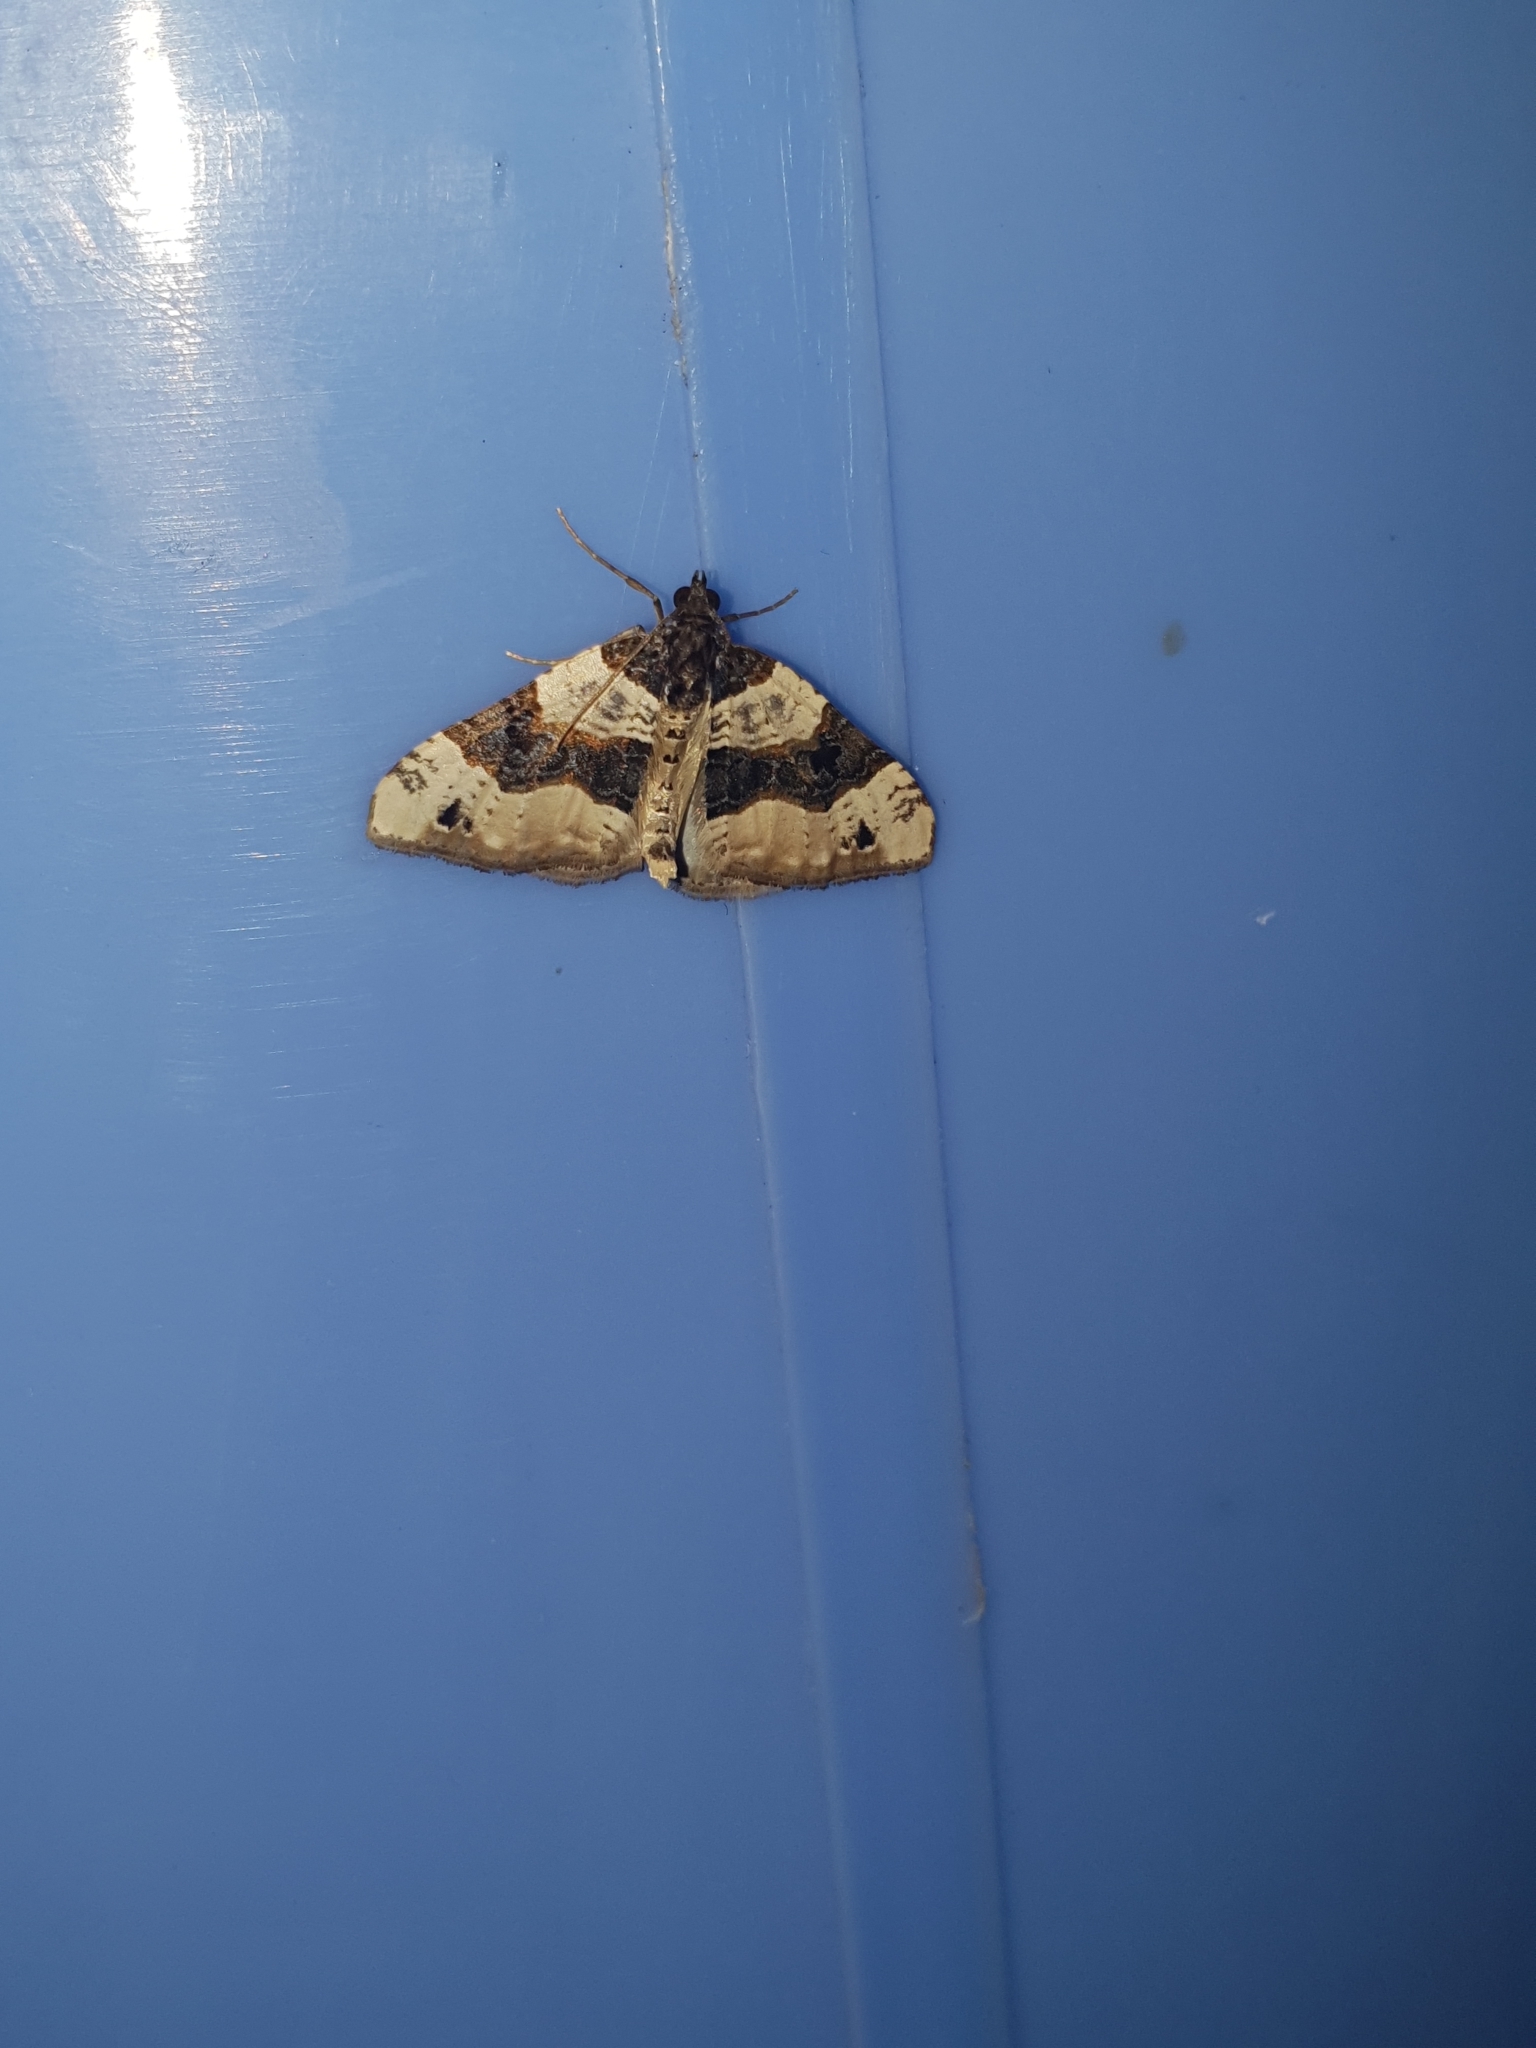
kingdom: Animalia
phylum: Arthropoda
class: Insecta
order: Lepidoptera
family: Geometridae
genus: Cosmorhoe
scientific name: Cosmorhoe ocellata
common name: Purple bar
